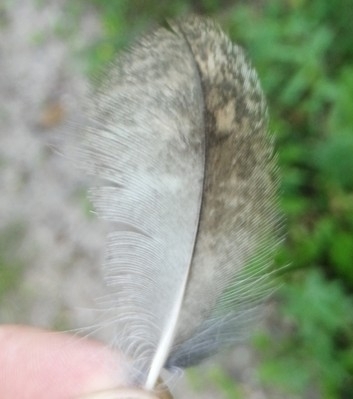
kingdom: Animalia
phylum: Chordata
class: Aves
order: Strigiformes
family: Strigidae
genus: Strix
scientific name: Strix aluco
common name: Tawny owl
